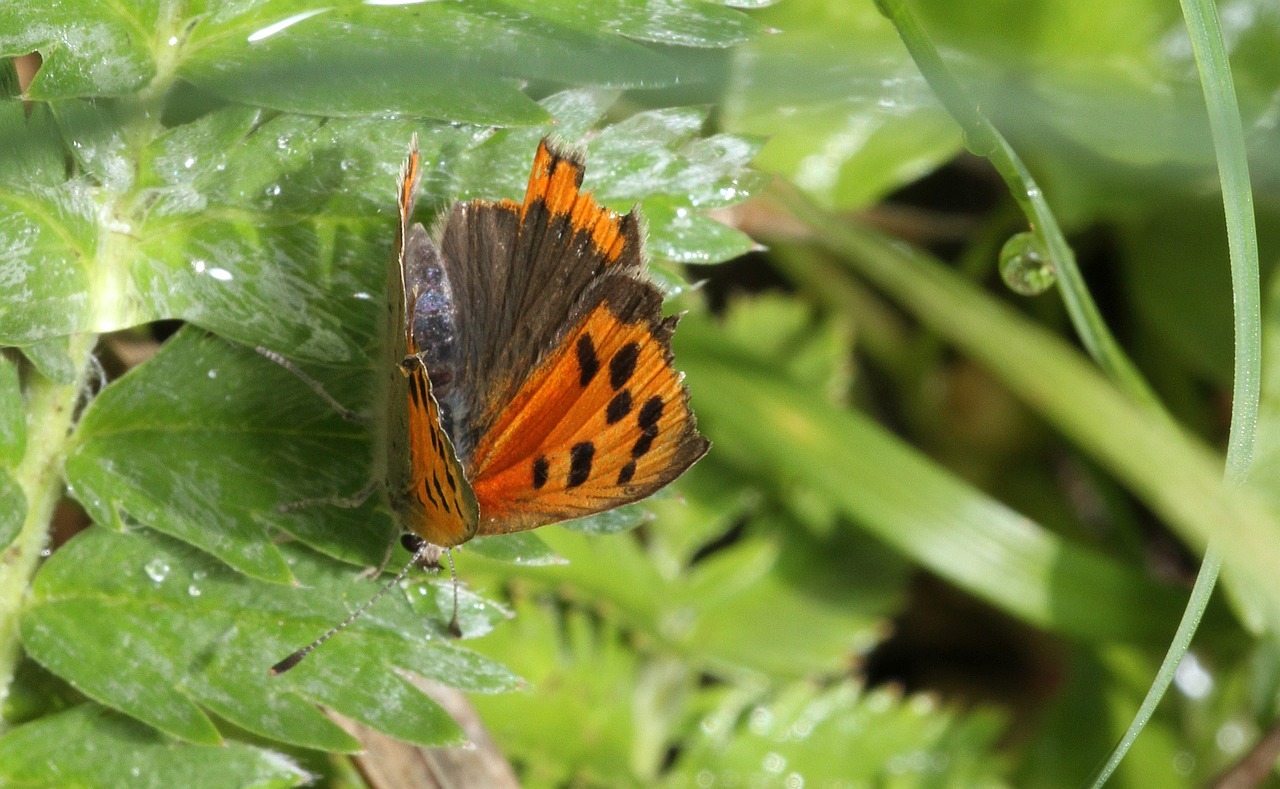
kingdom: Animalia
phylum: Arthropoda
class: Insecta
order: Lepidoptera
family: Lycaenidae
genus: Lycaena
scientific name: Lycaena phlaeas
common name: Small copper
